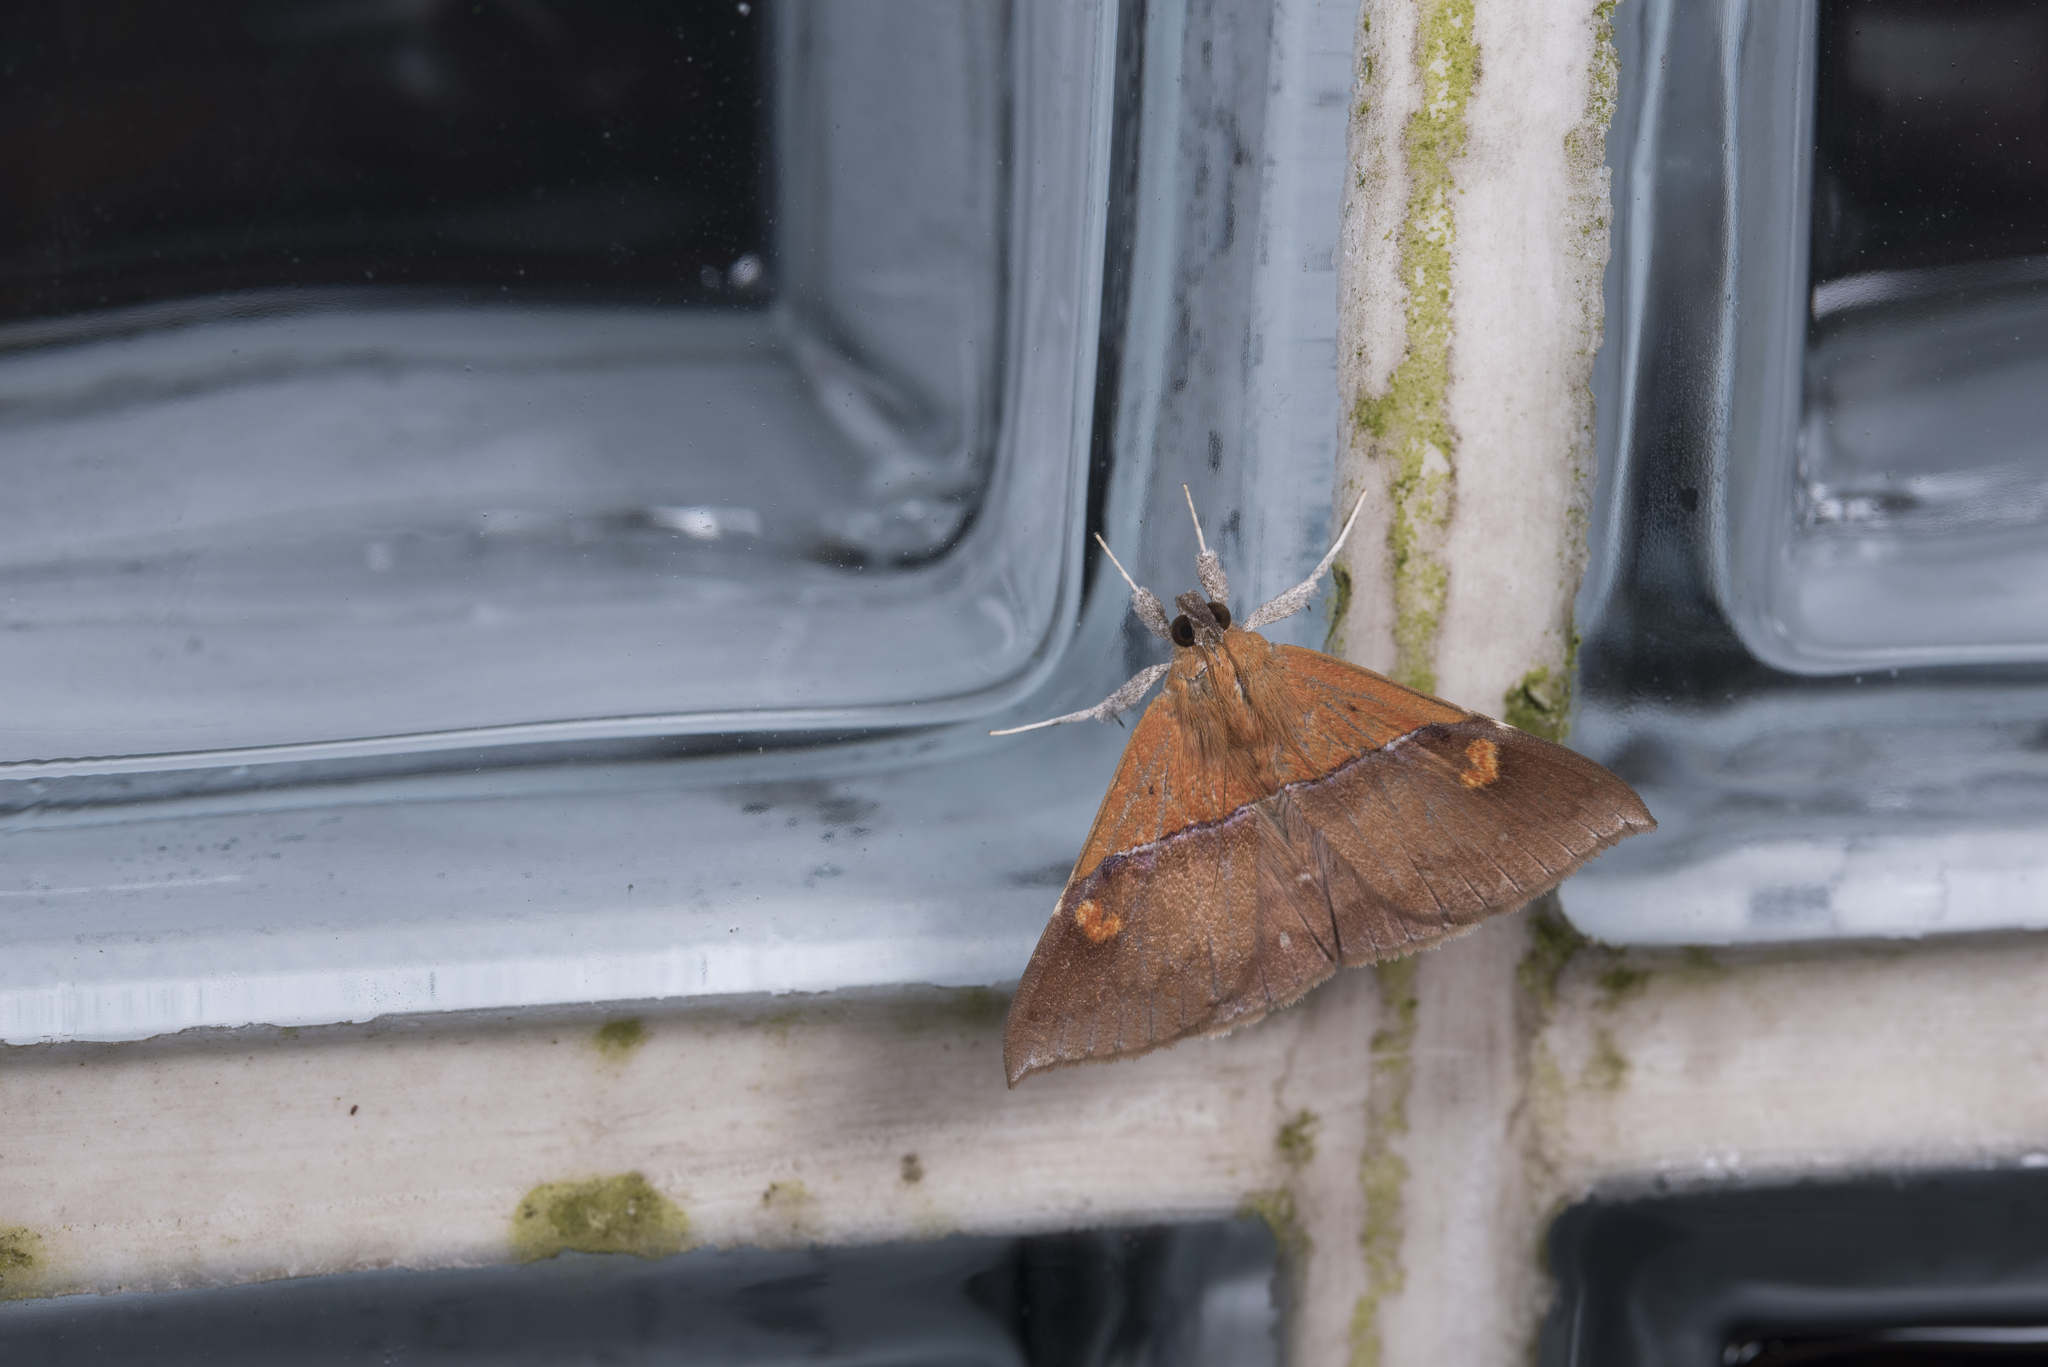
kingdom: Animalia
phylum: Arthropoda
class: Insecta
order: Lepidoptera
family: Erebidae
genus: Sympis
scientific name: Sympis rufibasis
